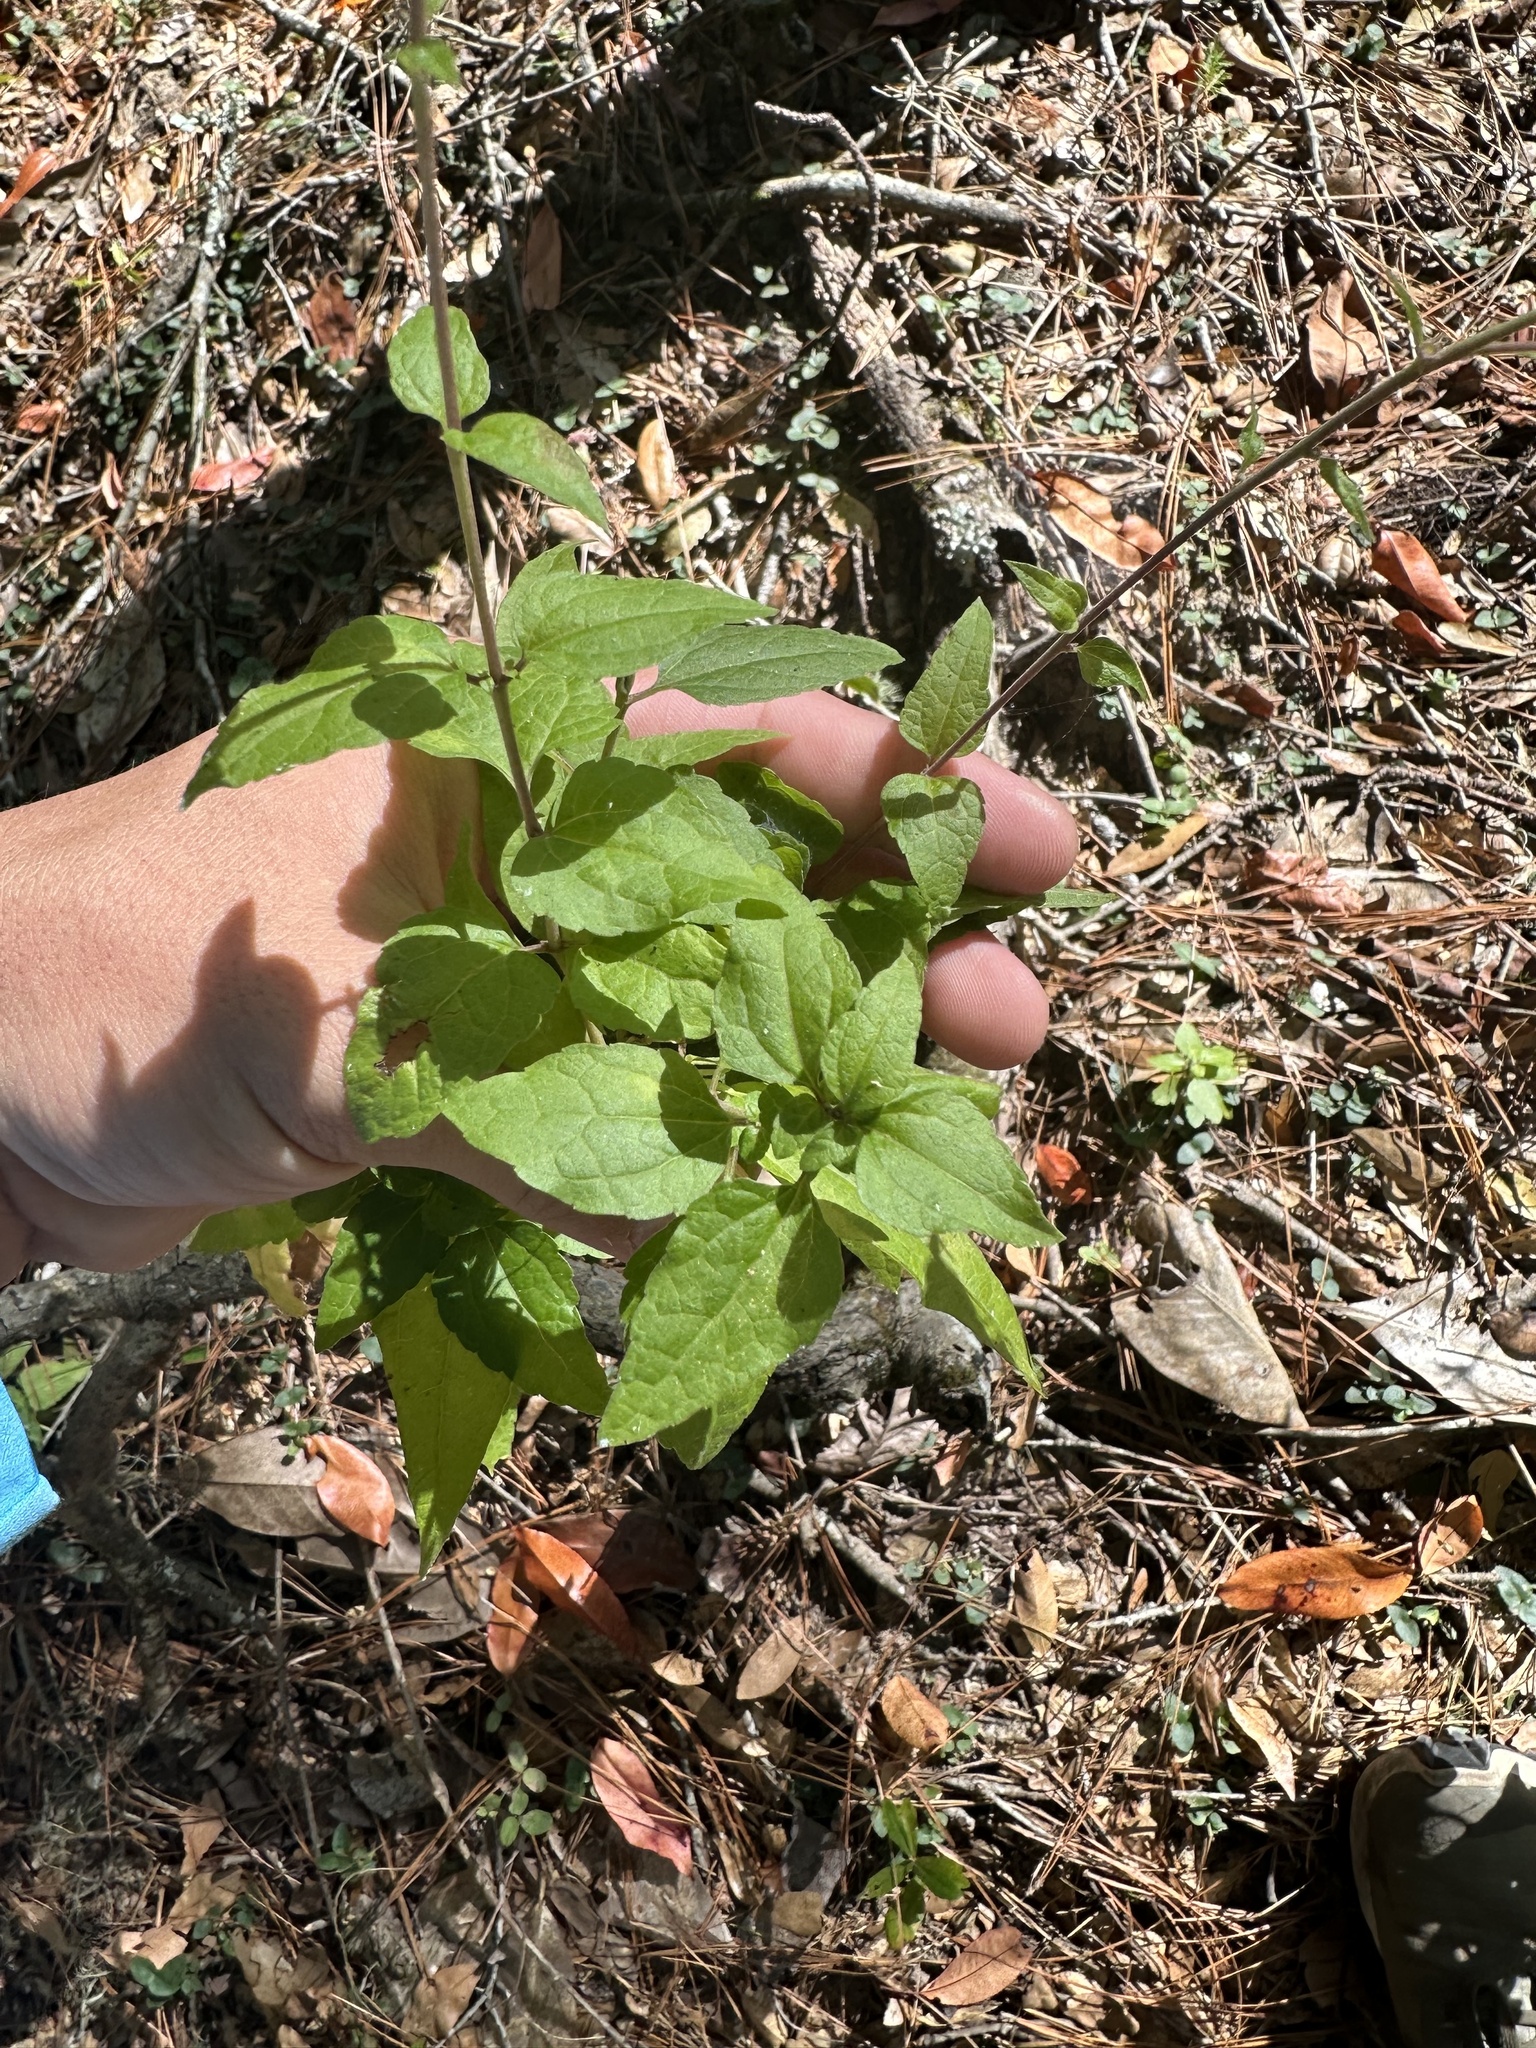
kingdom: Plantae
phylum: Tracheophyta
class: Magnoliopsida
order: Asterales
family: Asteraceae
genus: Brickellia
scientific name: Brickellia cordifolia
